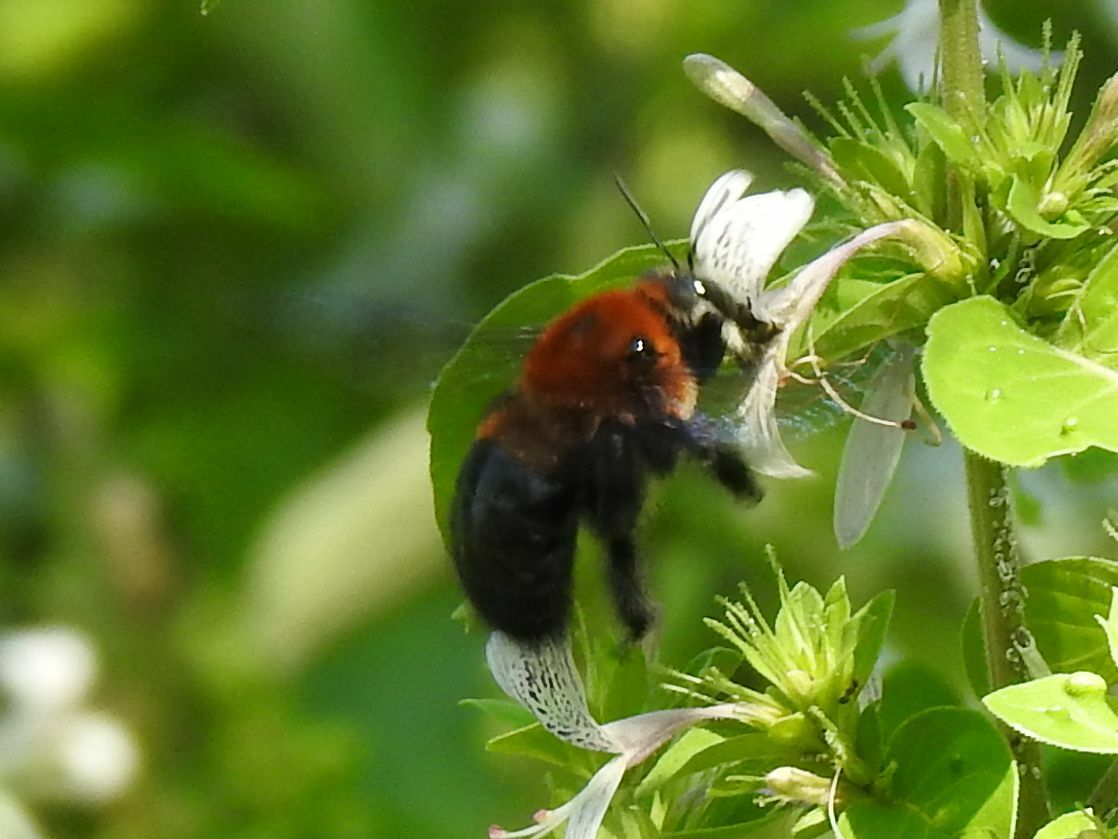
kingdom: Animalia
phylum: Arthropoda
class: Insecta
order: Hymenoptera
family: Apidae
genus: Xylocopa
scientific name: Xylocopa erythrina
